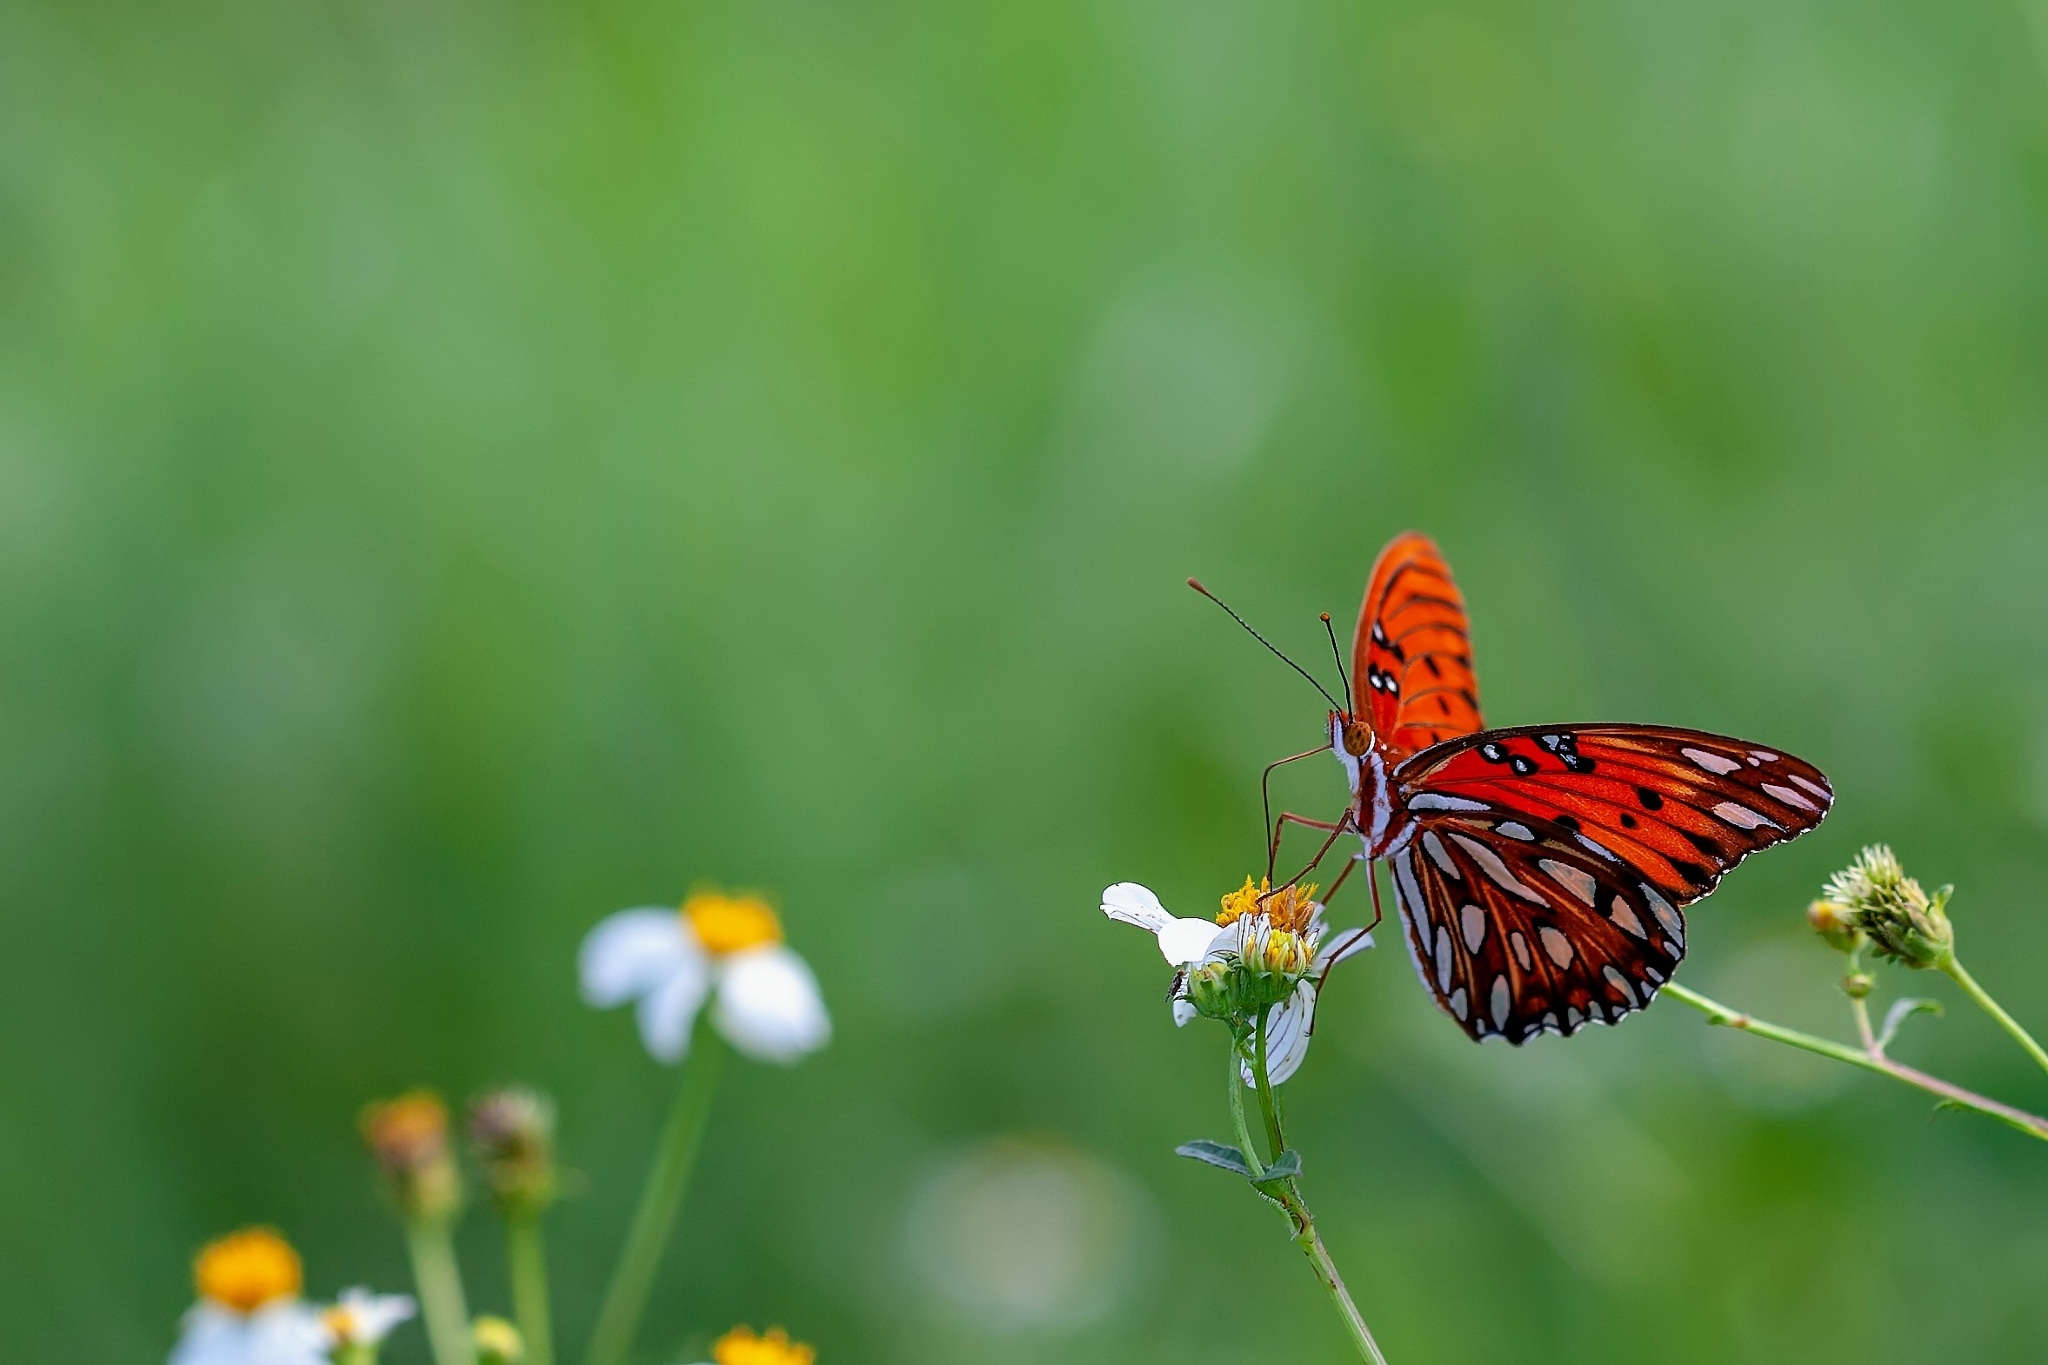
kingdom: Animalia
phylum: Arthropoda
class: Insecta
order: Lepidoptera
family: Nymphalidae
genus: Dione
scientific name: Dione vanillae
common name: Gulf fritillary
